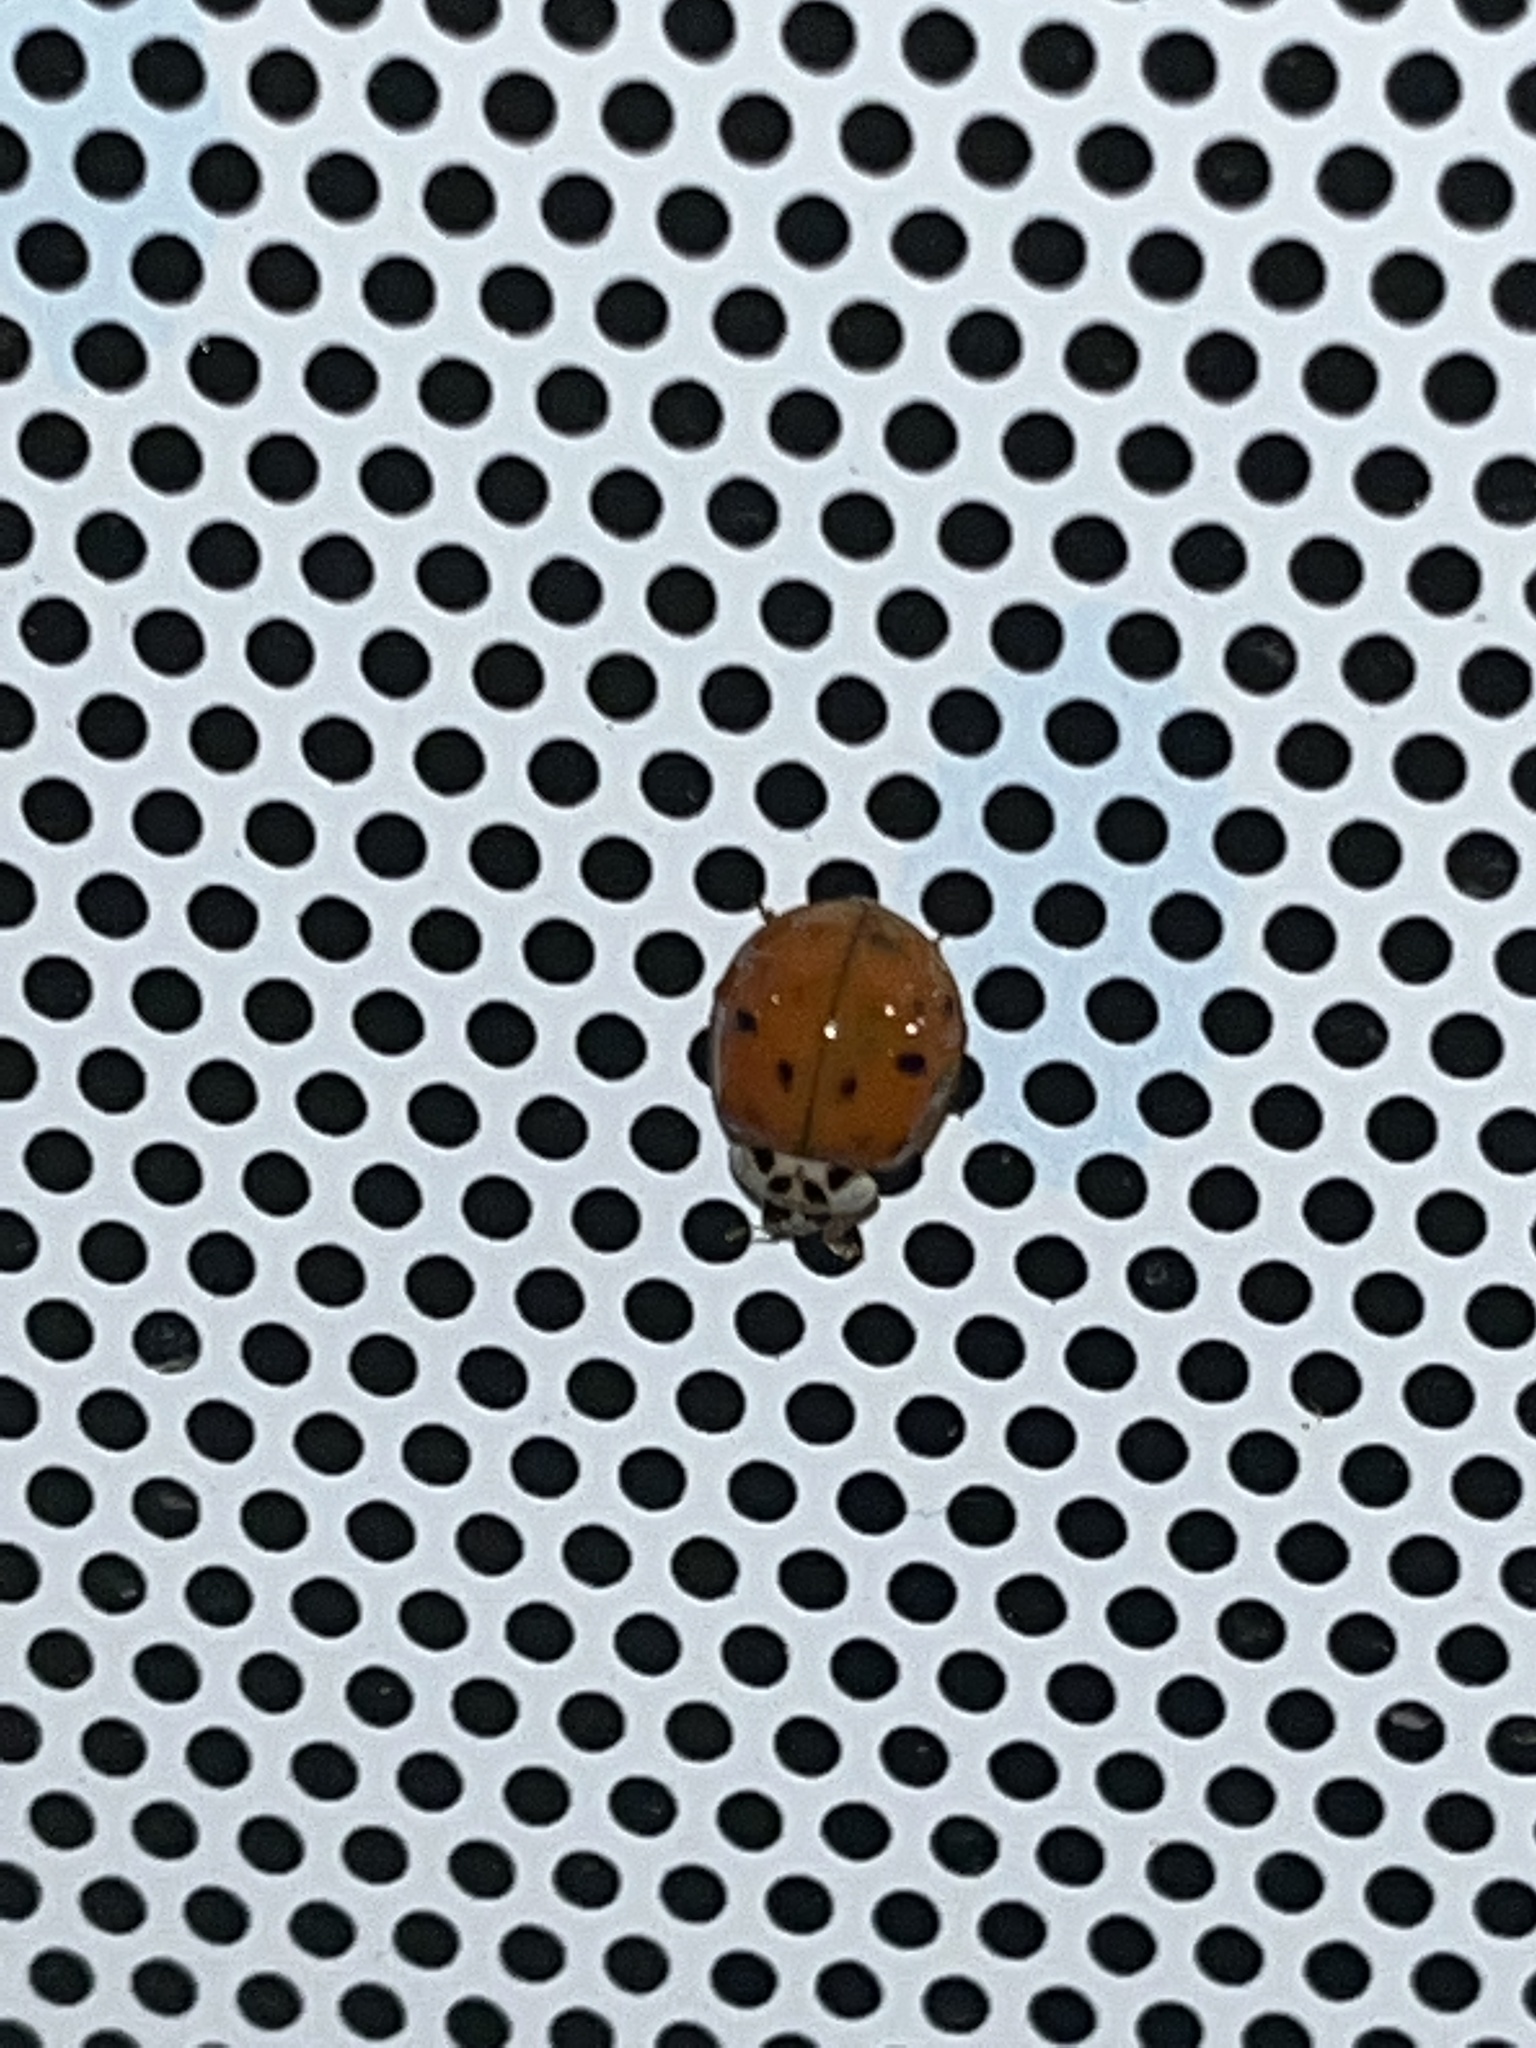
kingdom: Animalia
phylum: Arthropoda
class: Insecta
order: Coleoptera
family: Coccinellidae
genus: Harmonia
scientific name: Harmonia axyridis
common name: Harlequin ladybird
